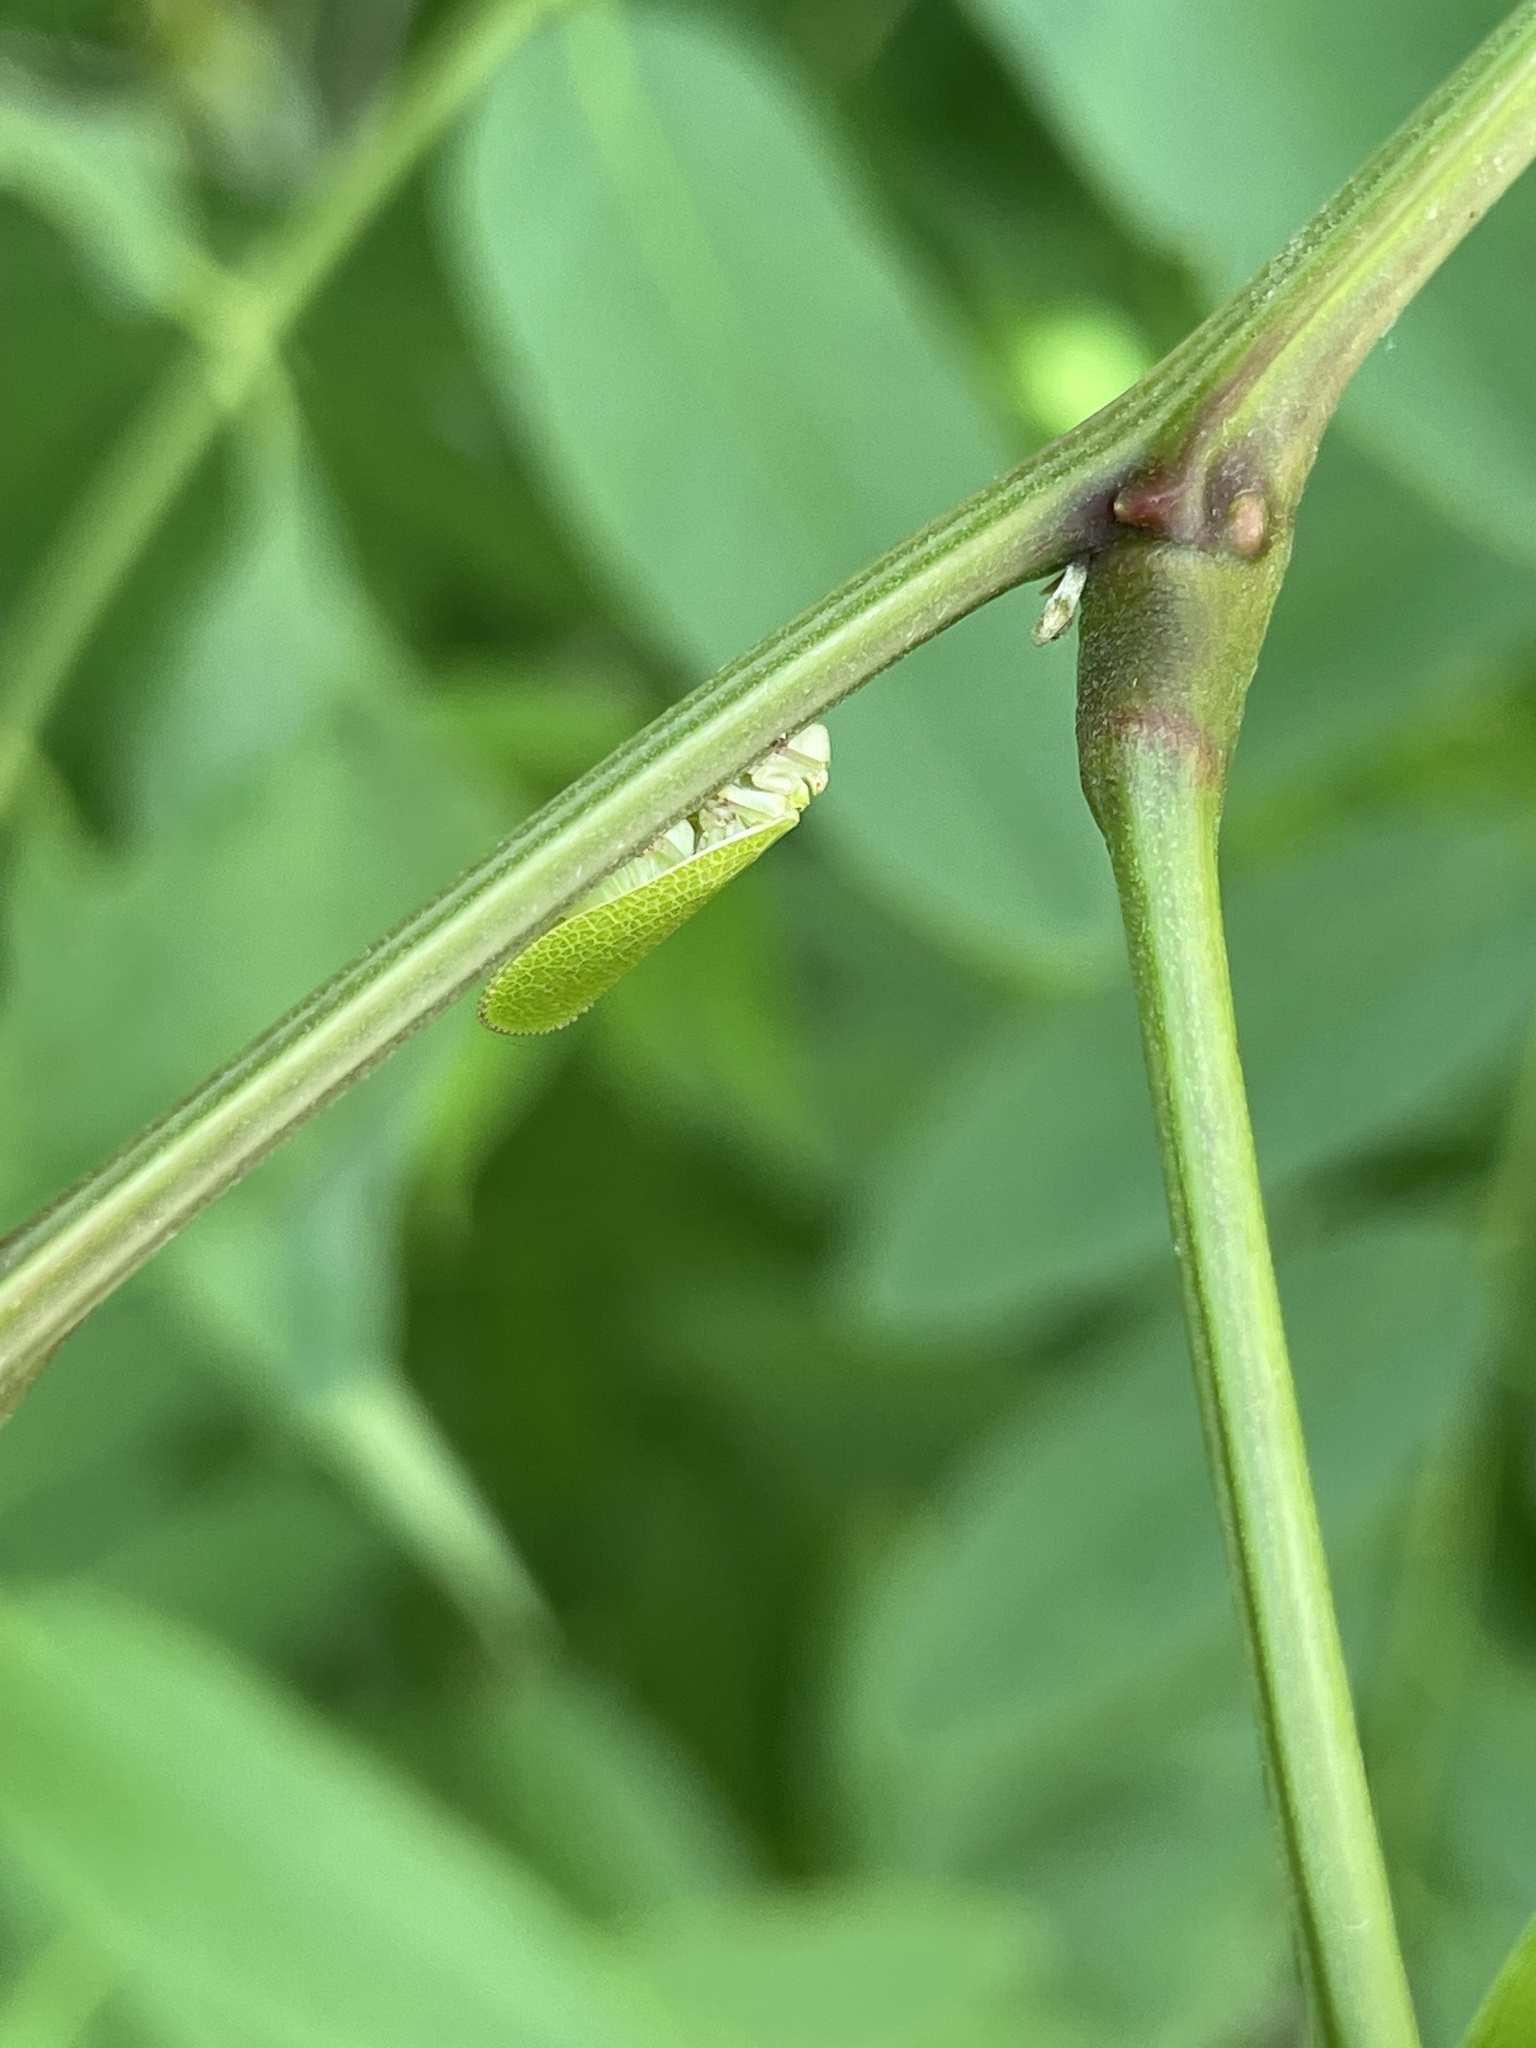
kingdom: Animalia
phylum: Arthropoda
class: Insecta
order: Hemiptera
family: Acanaloniidae
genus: Acanalonia
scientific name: Acanalonia conica
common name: Green cone-headed planthopper
